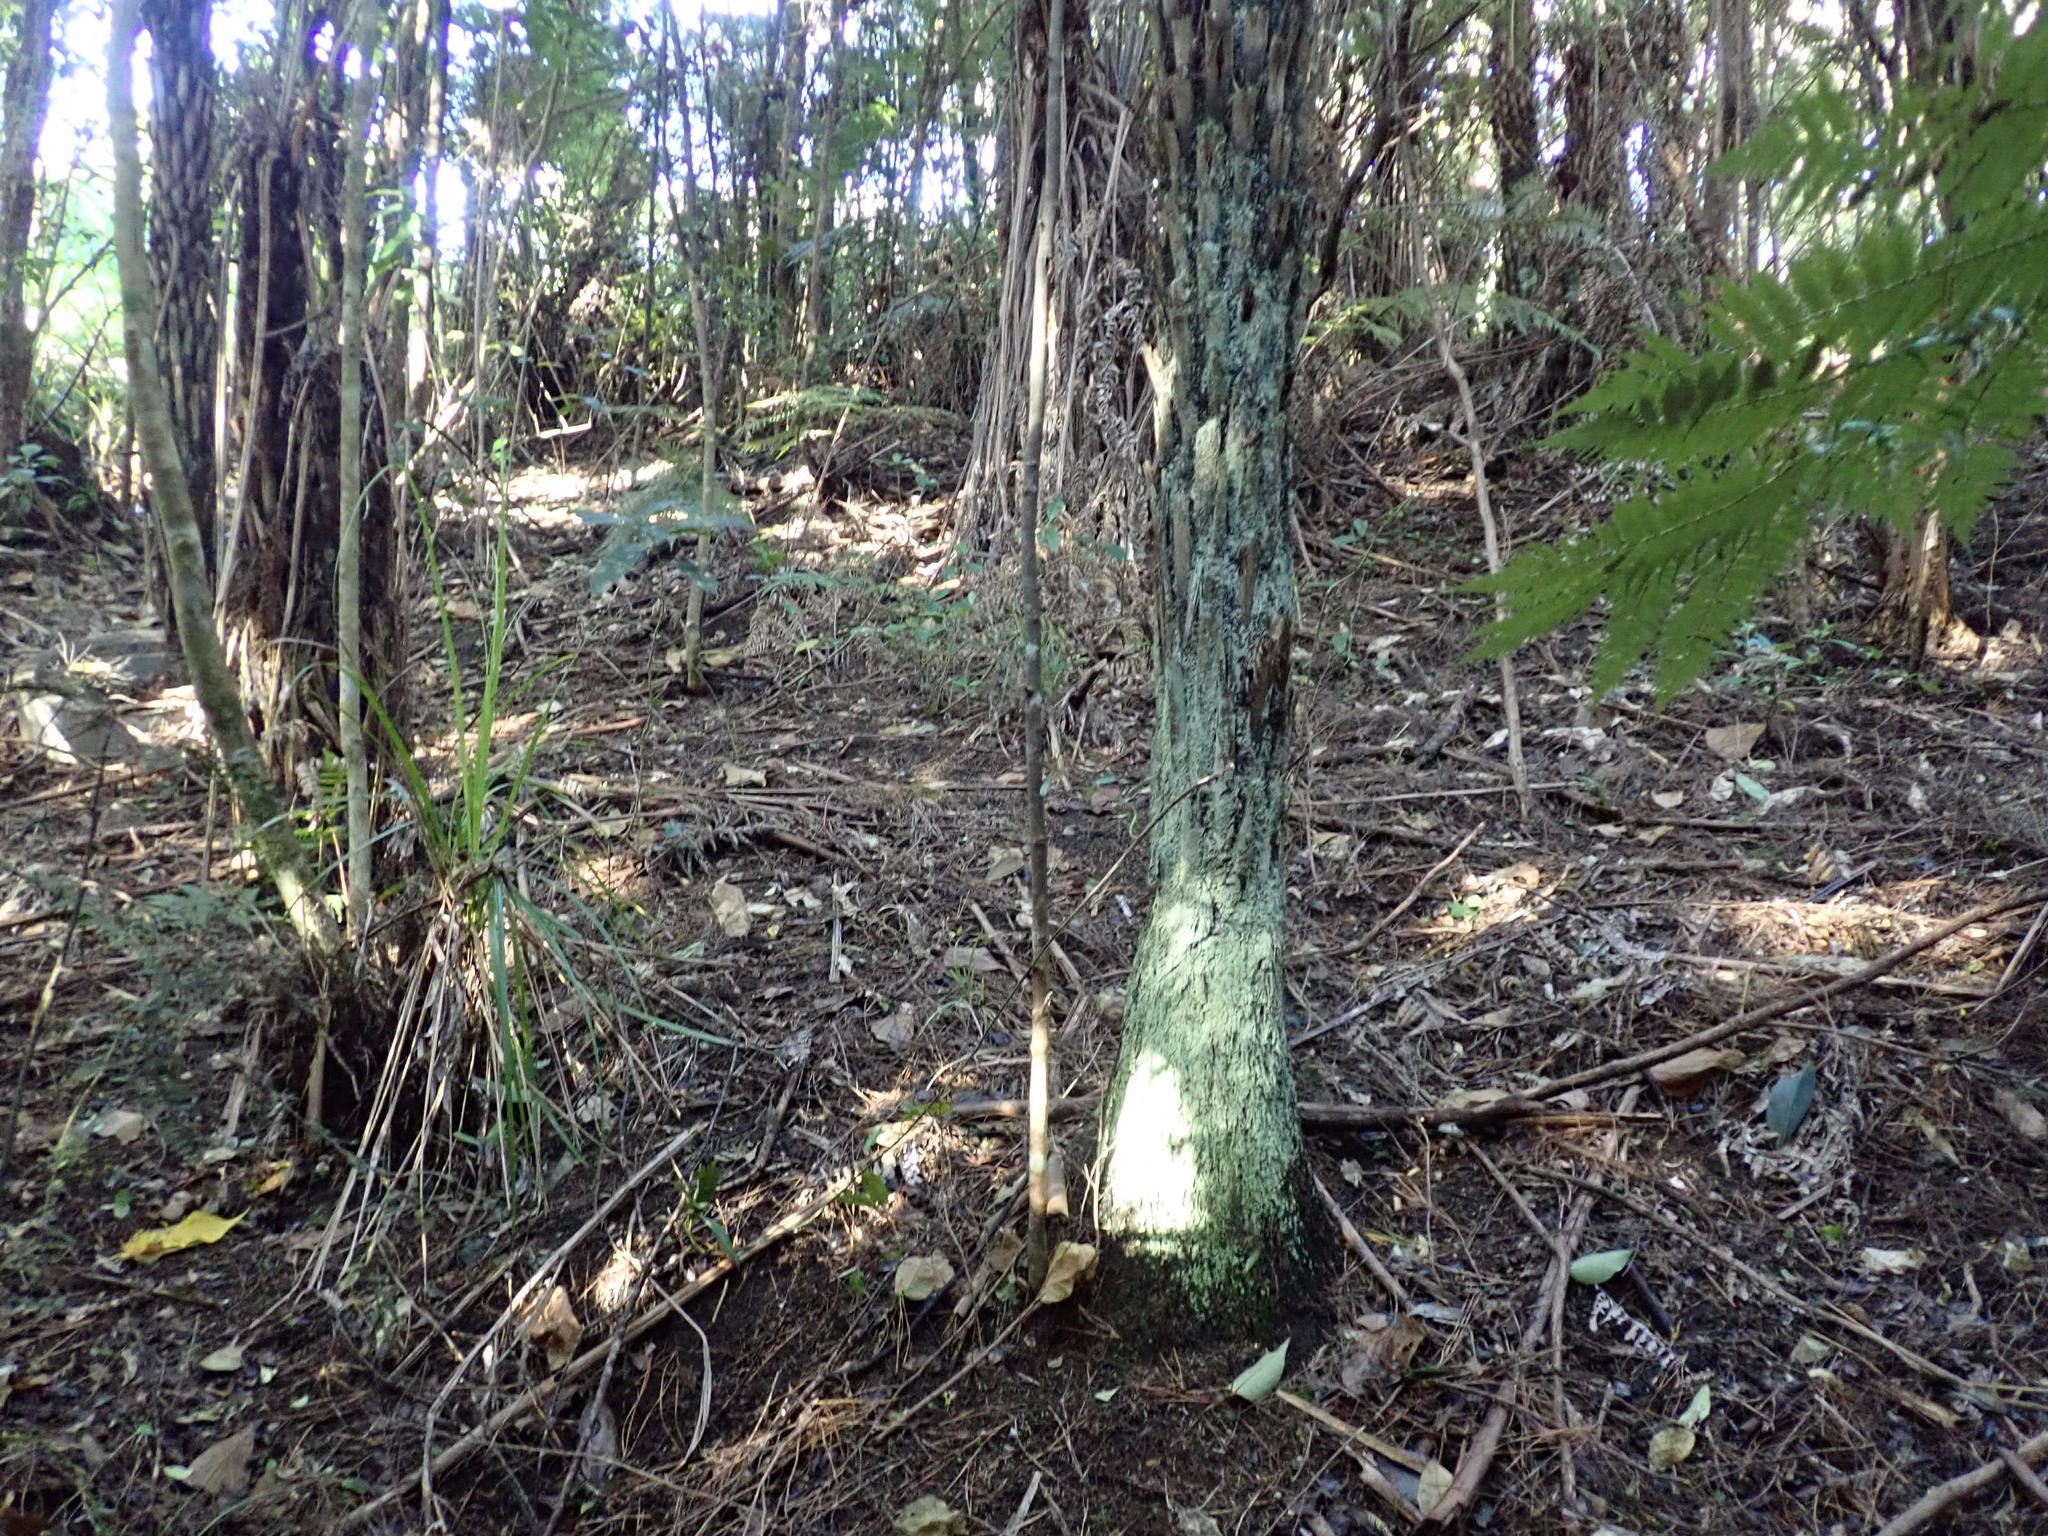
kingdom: Plantae
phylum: Tracheophyta
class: Polypodiopsida
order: Cyatheales
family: Cyatheaceae
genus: Alsophila
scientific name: Alsophila dealbata
